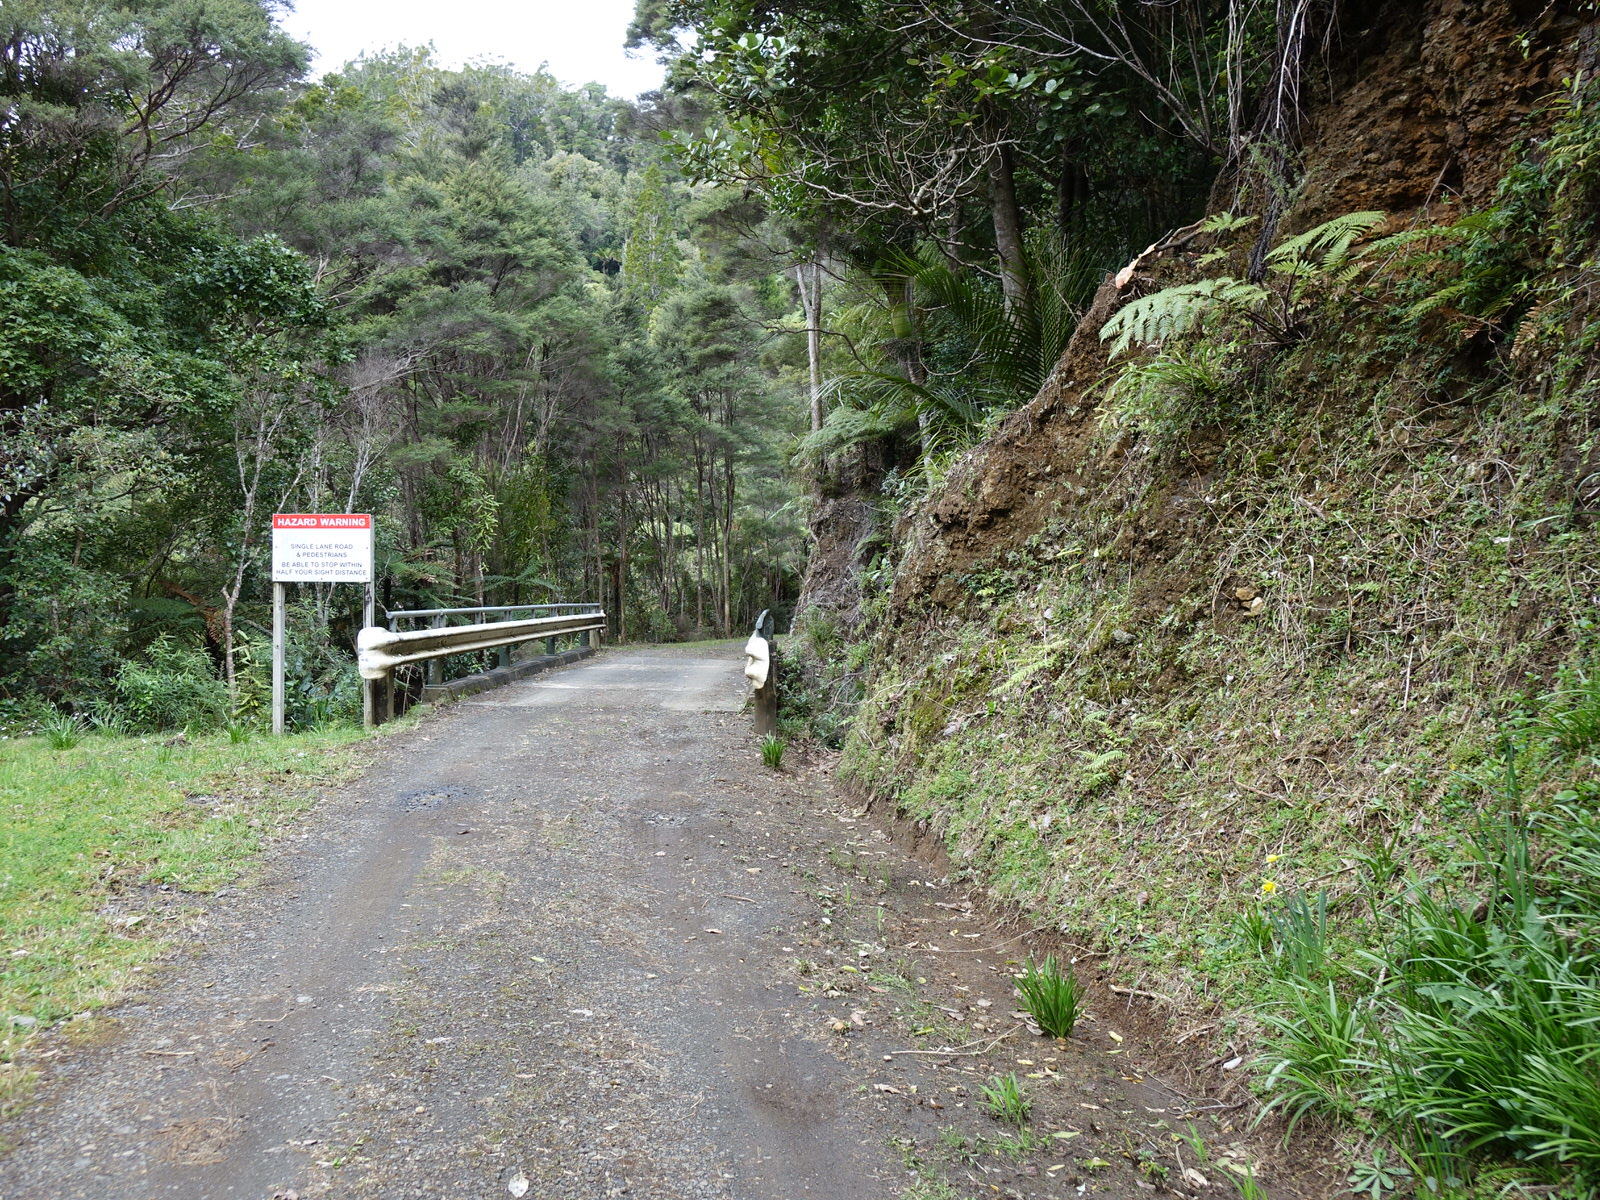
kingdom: Plantae
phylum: Tracheophyta
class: Liliopsida
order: Asparagales
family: Amaryllidaceae
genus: Narcissus
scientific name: Narcissus pseudonarcissus
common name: Daffodil
